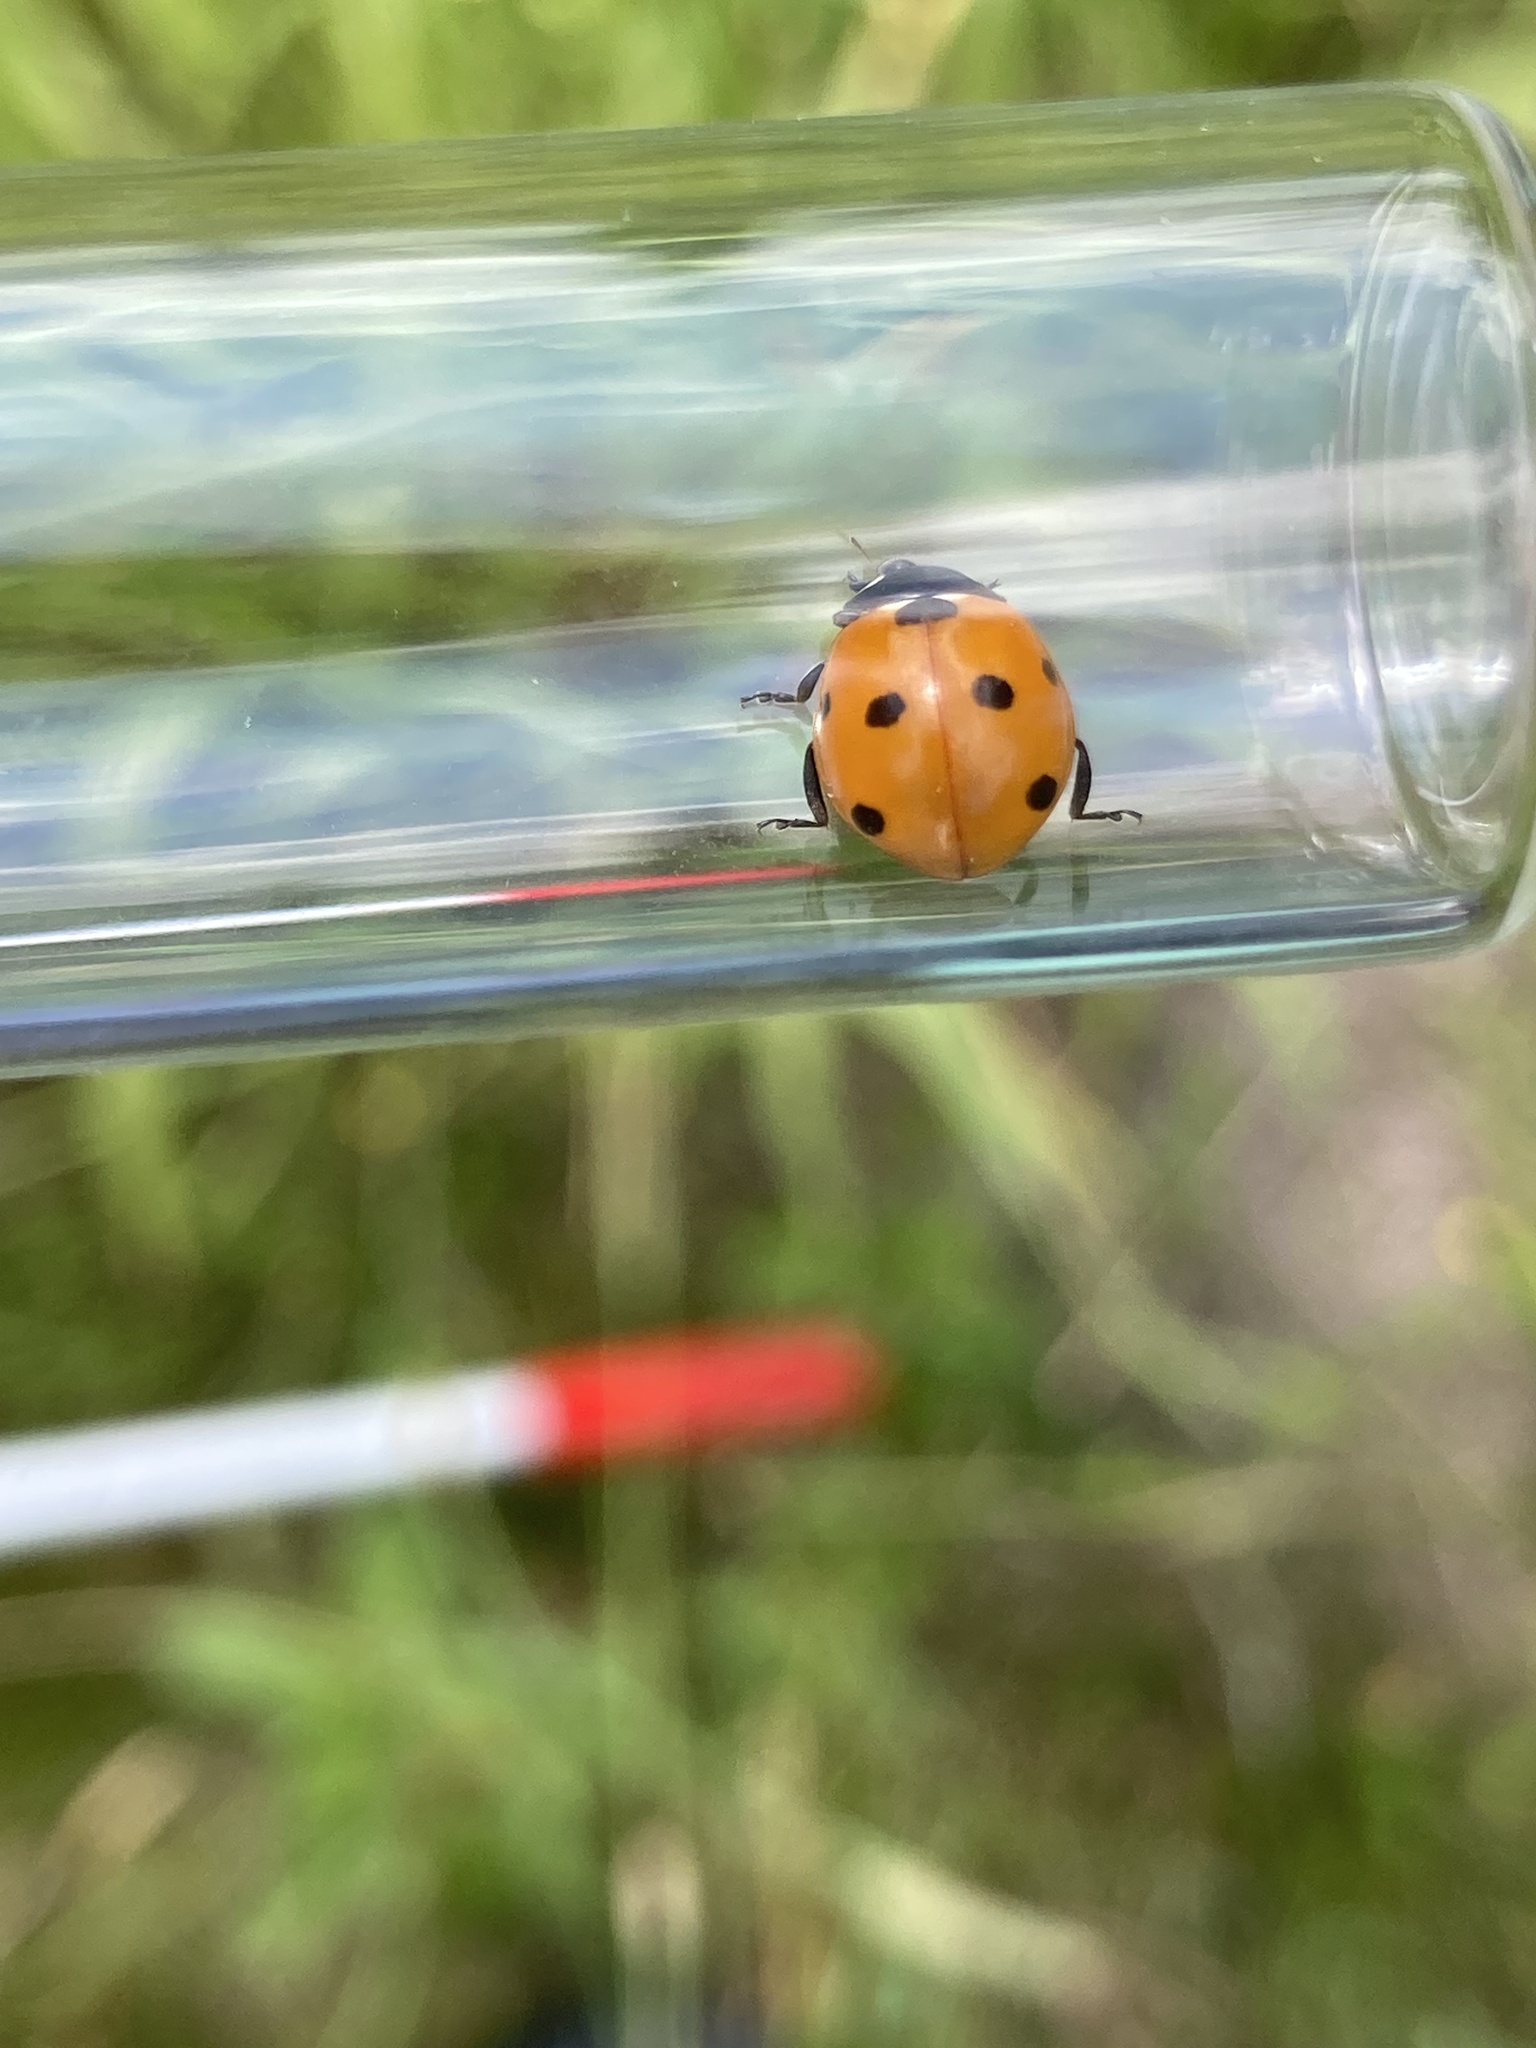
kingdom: Animalia
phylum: Arthropoda
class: Insecta
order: Coleoptera
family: Coccinellidae
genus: Coccinella
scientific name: Coccinella septempunctata
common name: Sevenspotted lady beetle
